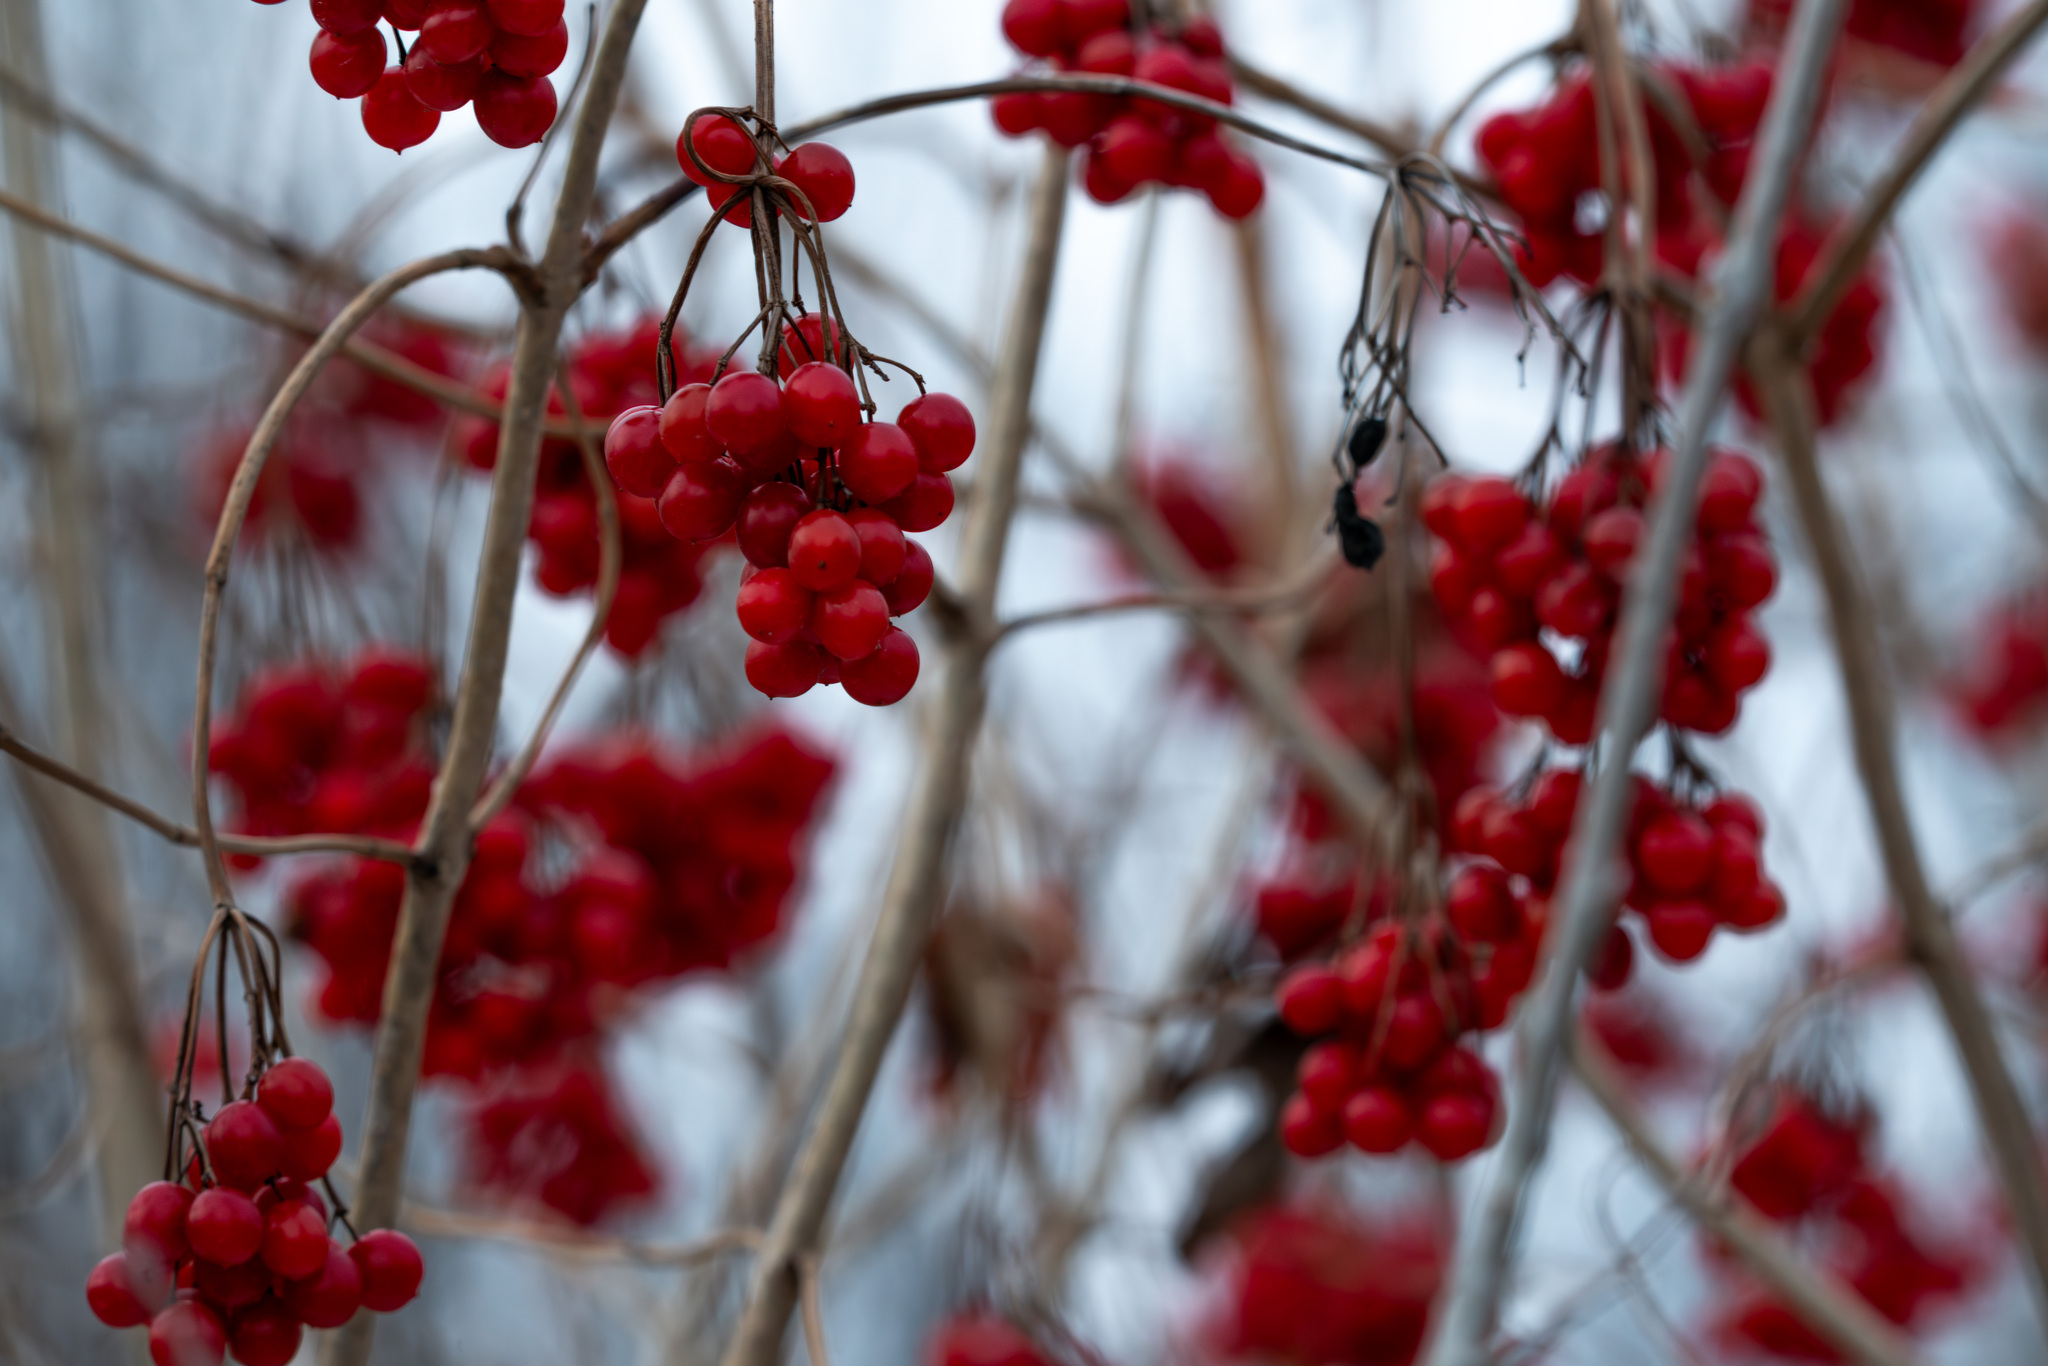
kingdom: Plantae
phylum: Tracheophyta
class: Magnoliopsida
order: Dipsacales
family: Viburnaceae
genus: Viburnum
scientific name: Viburnum opulus
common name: Guelder-rose
